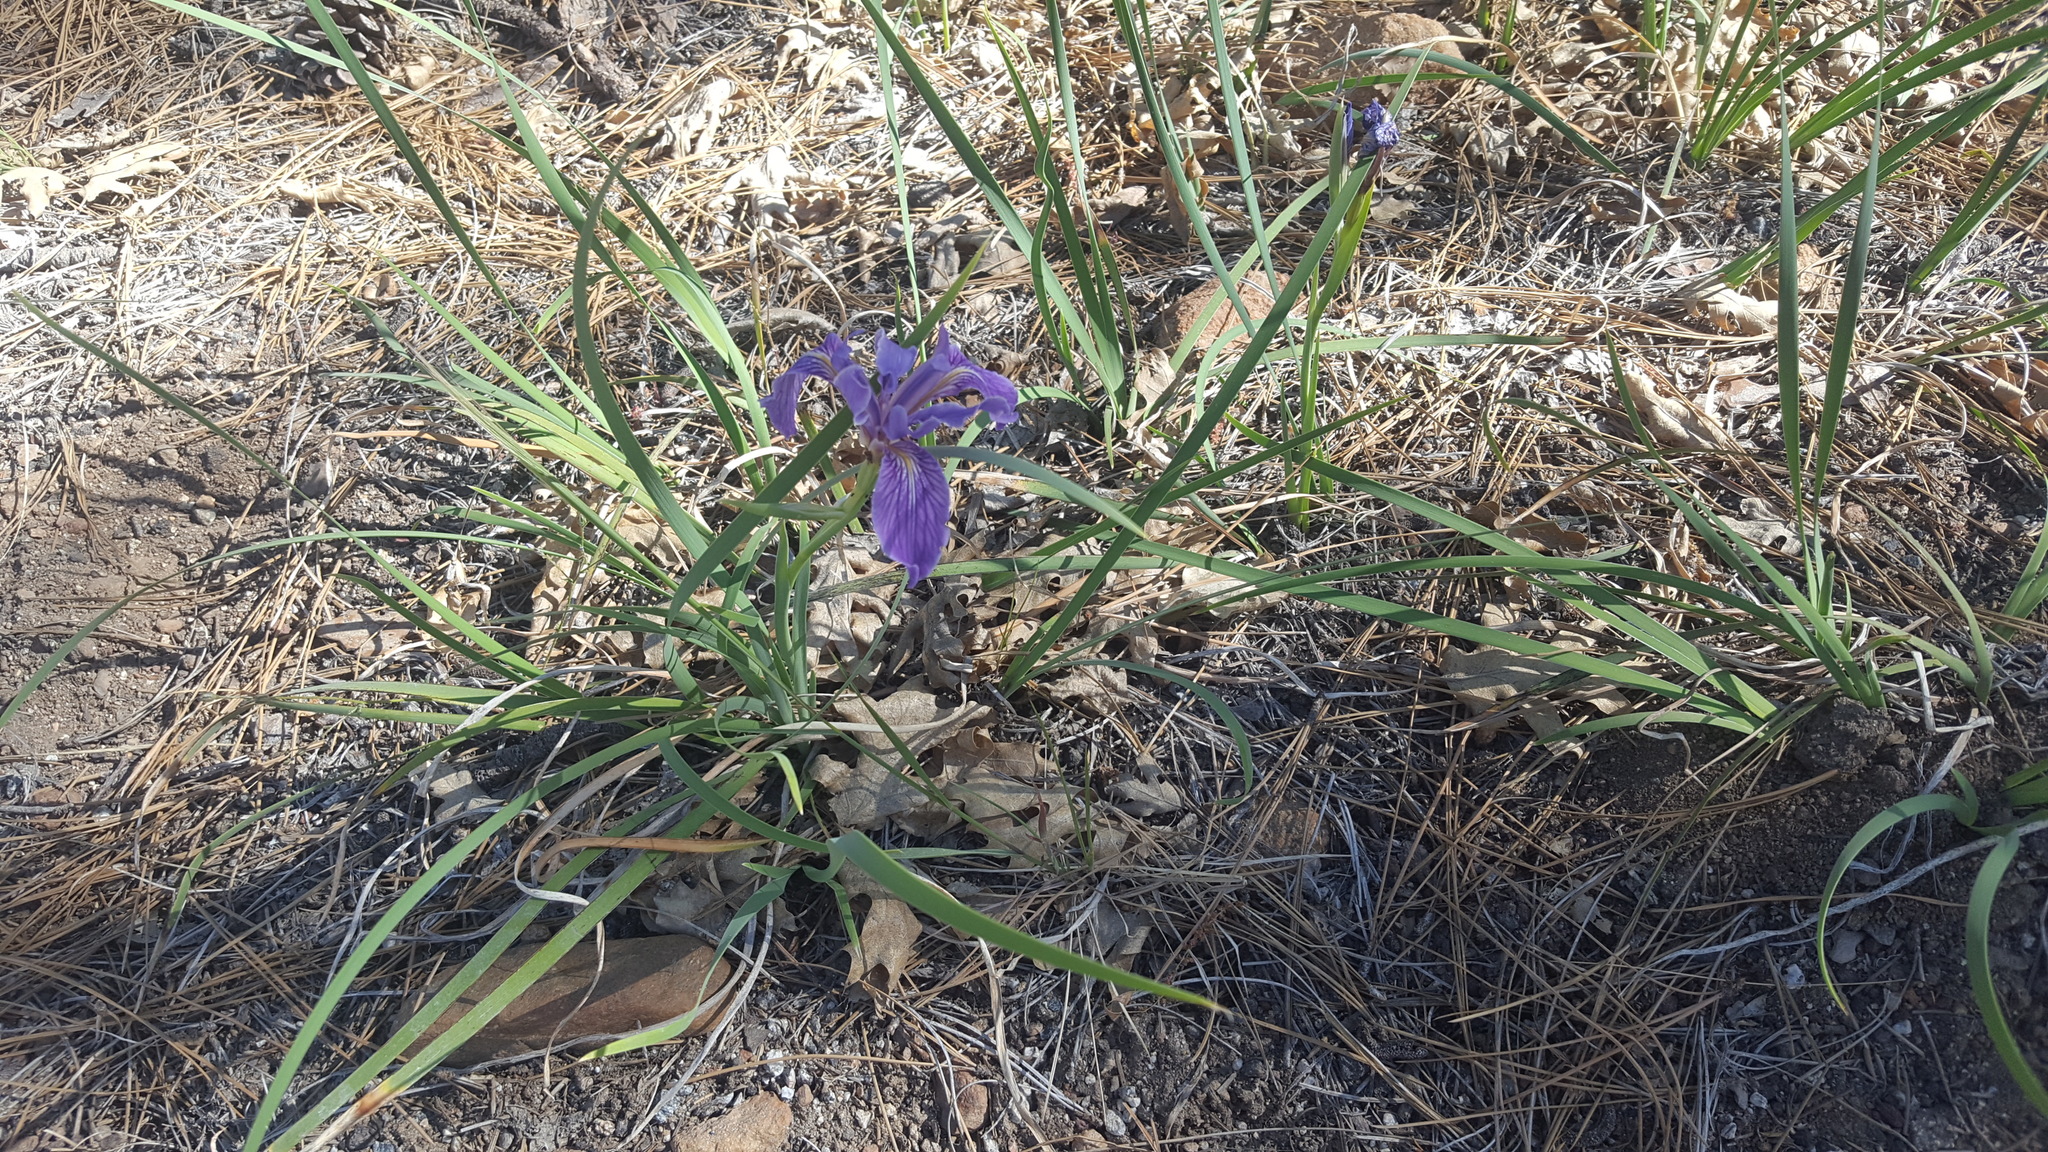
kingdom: Plantae
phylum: Tracheophyta
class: Liliopsida
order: Asparagales
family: Iridaceae
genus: Iris
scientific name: Iris hartwegii
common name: Sierra iris
